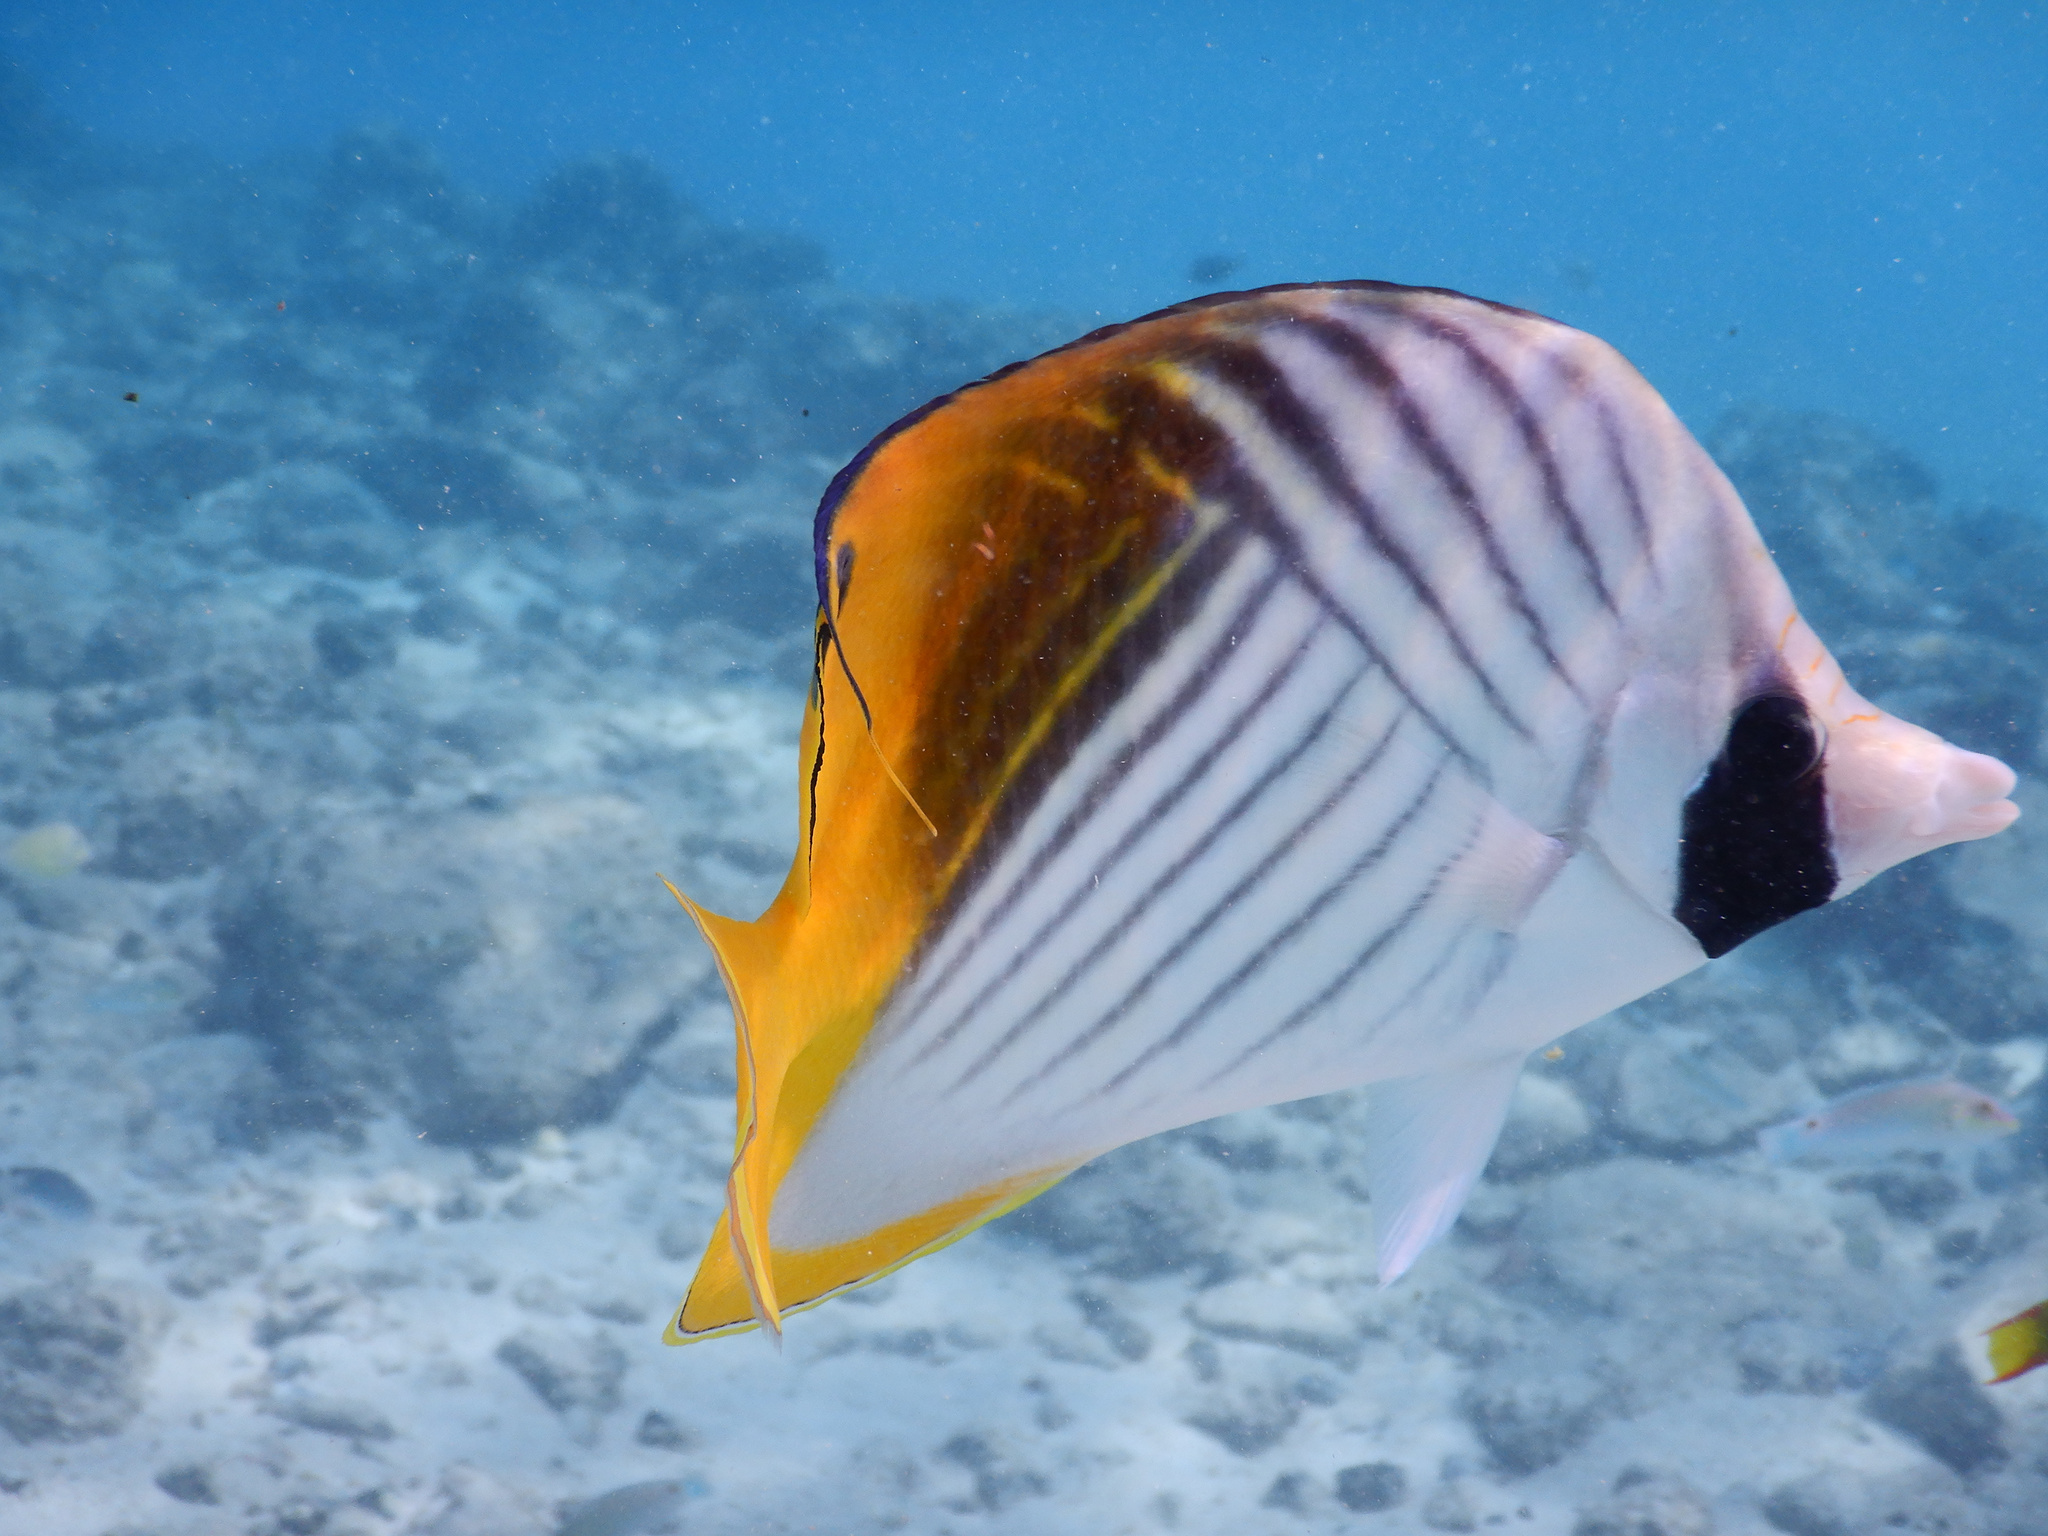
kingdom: Animalia
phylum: Chordata
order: Perciformes
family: Chaetodontidae
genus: Chaetodon
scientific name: Chaetodon auriga
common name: Threadfin butterflyfish
